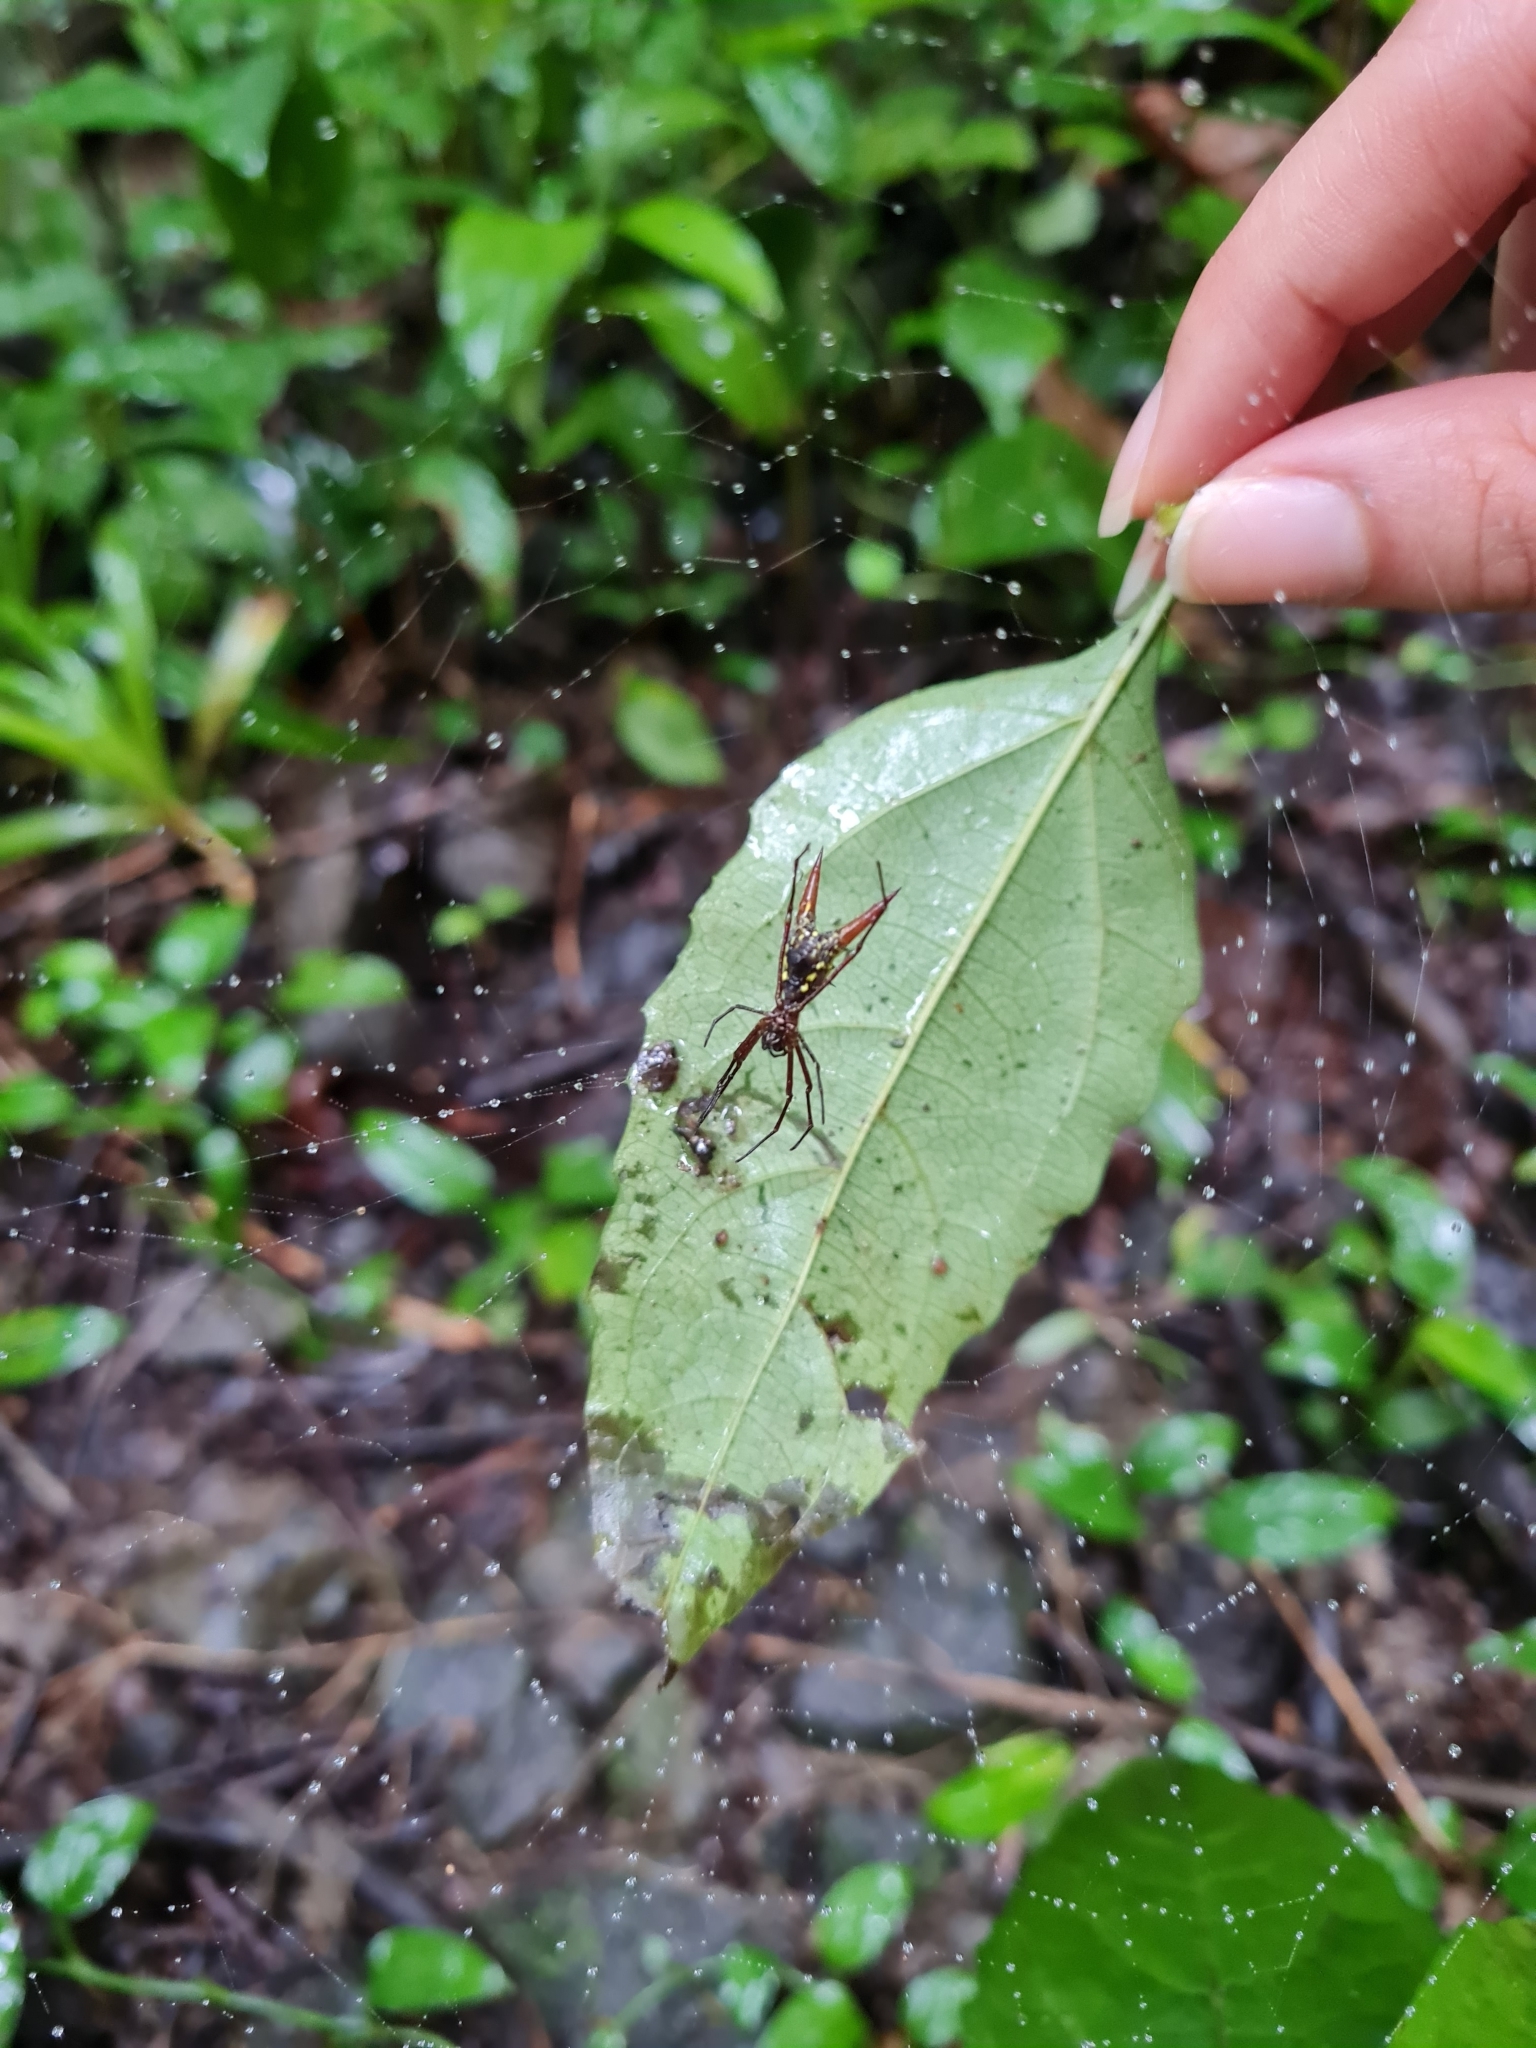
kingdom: Animalia
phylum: Arthropoda
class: Arachnida
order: Araneae
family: Araneidae
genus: Micrathena
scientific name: Micrathena brevipes
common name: Orb weavers
